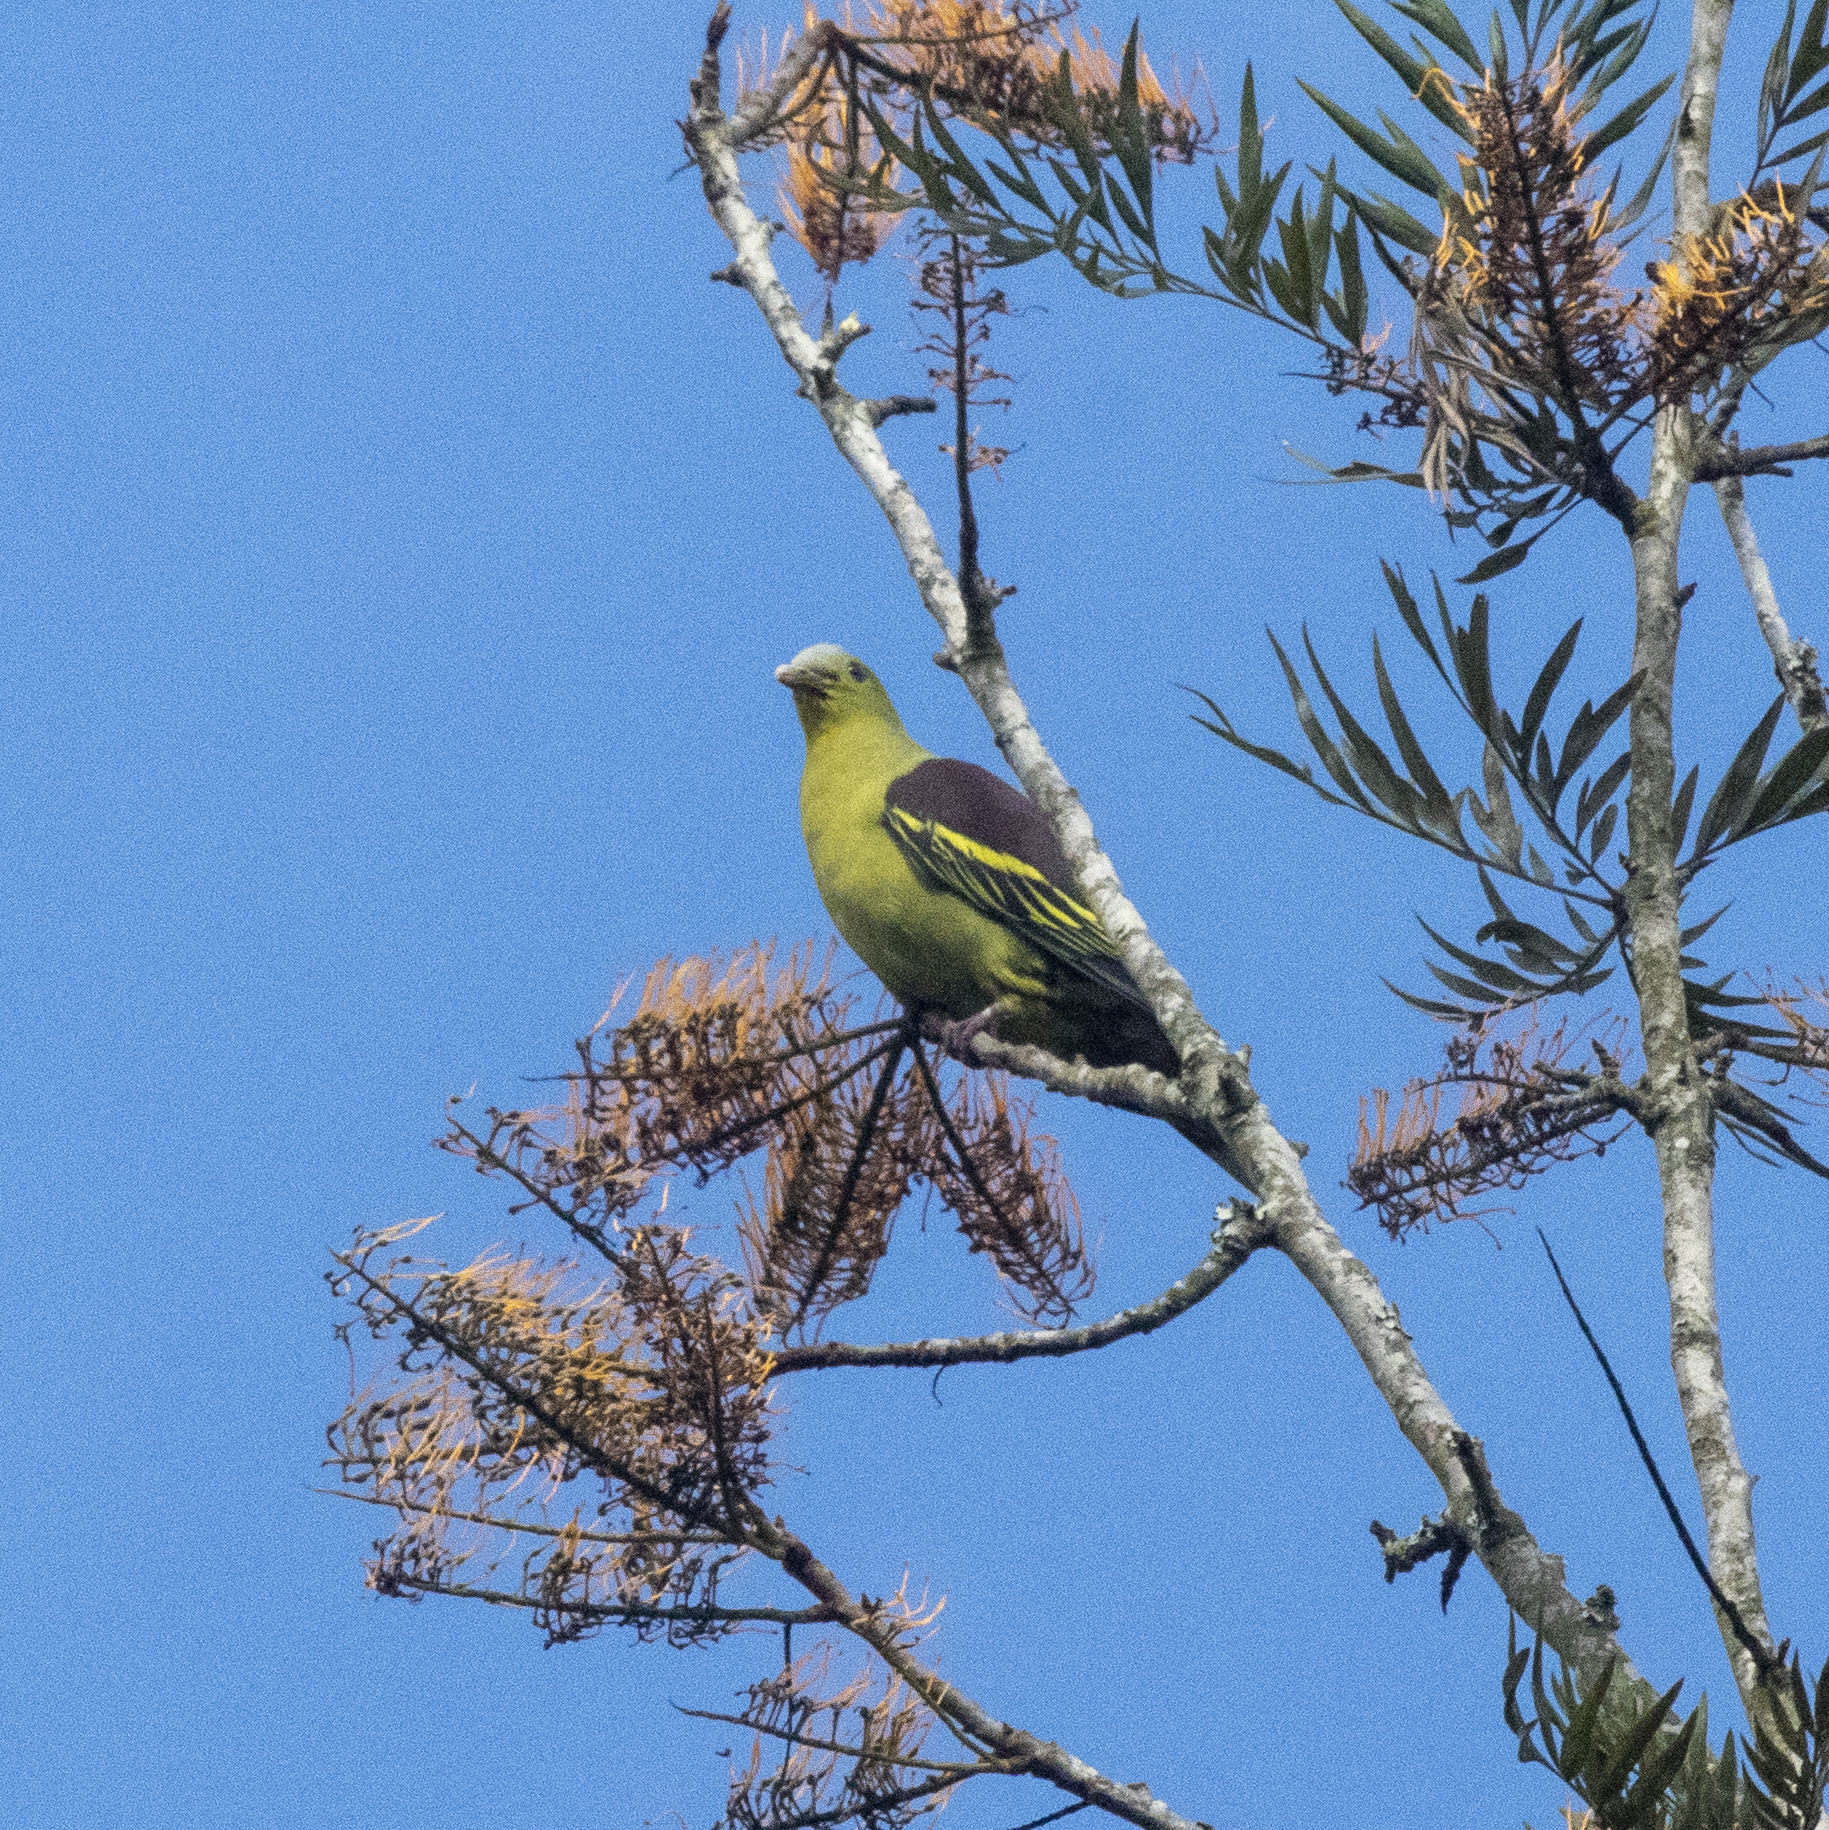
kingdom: Animalia
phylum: Chordata
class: Aves
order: Columbiformes
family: Columbidae
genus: Treron
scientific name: Treron affinis
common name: Grey-fronted green pigeon
